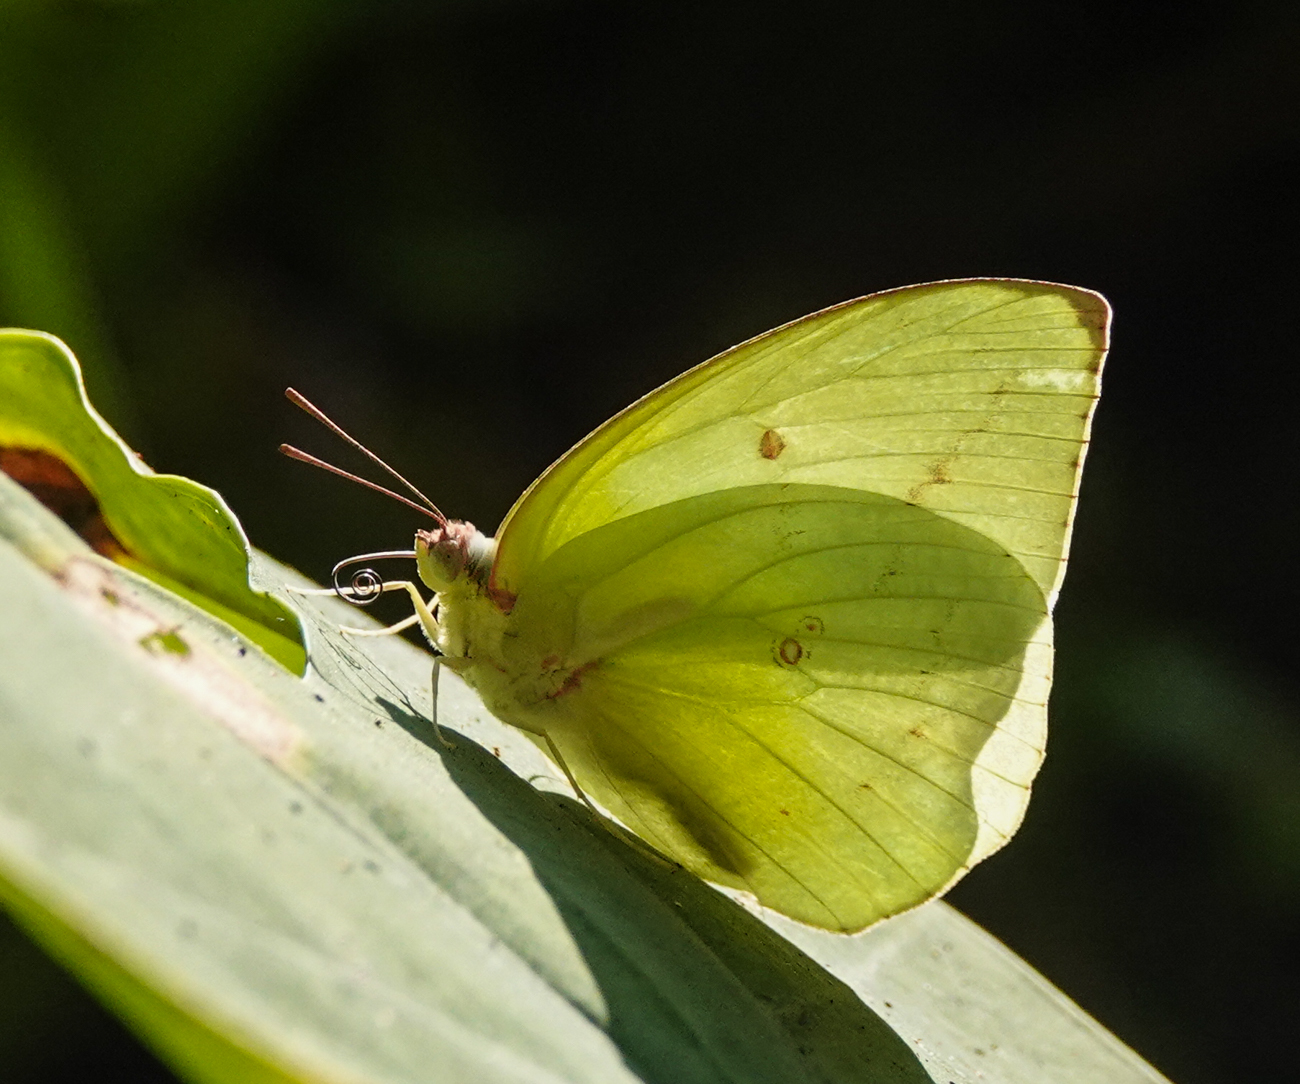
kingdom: Animalia
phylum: Arthropoda
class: Insecta
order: Lepidoptera
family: Pieridae
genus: Catopsilia
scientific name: Catopsilia pomona
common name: Common emigrant
